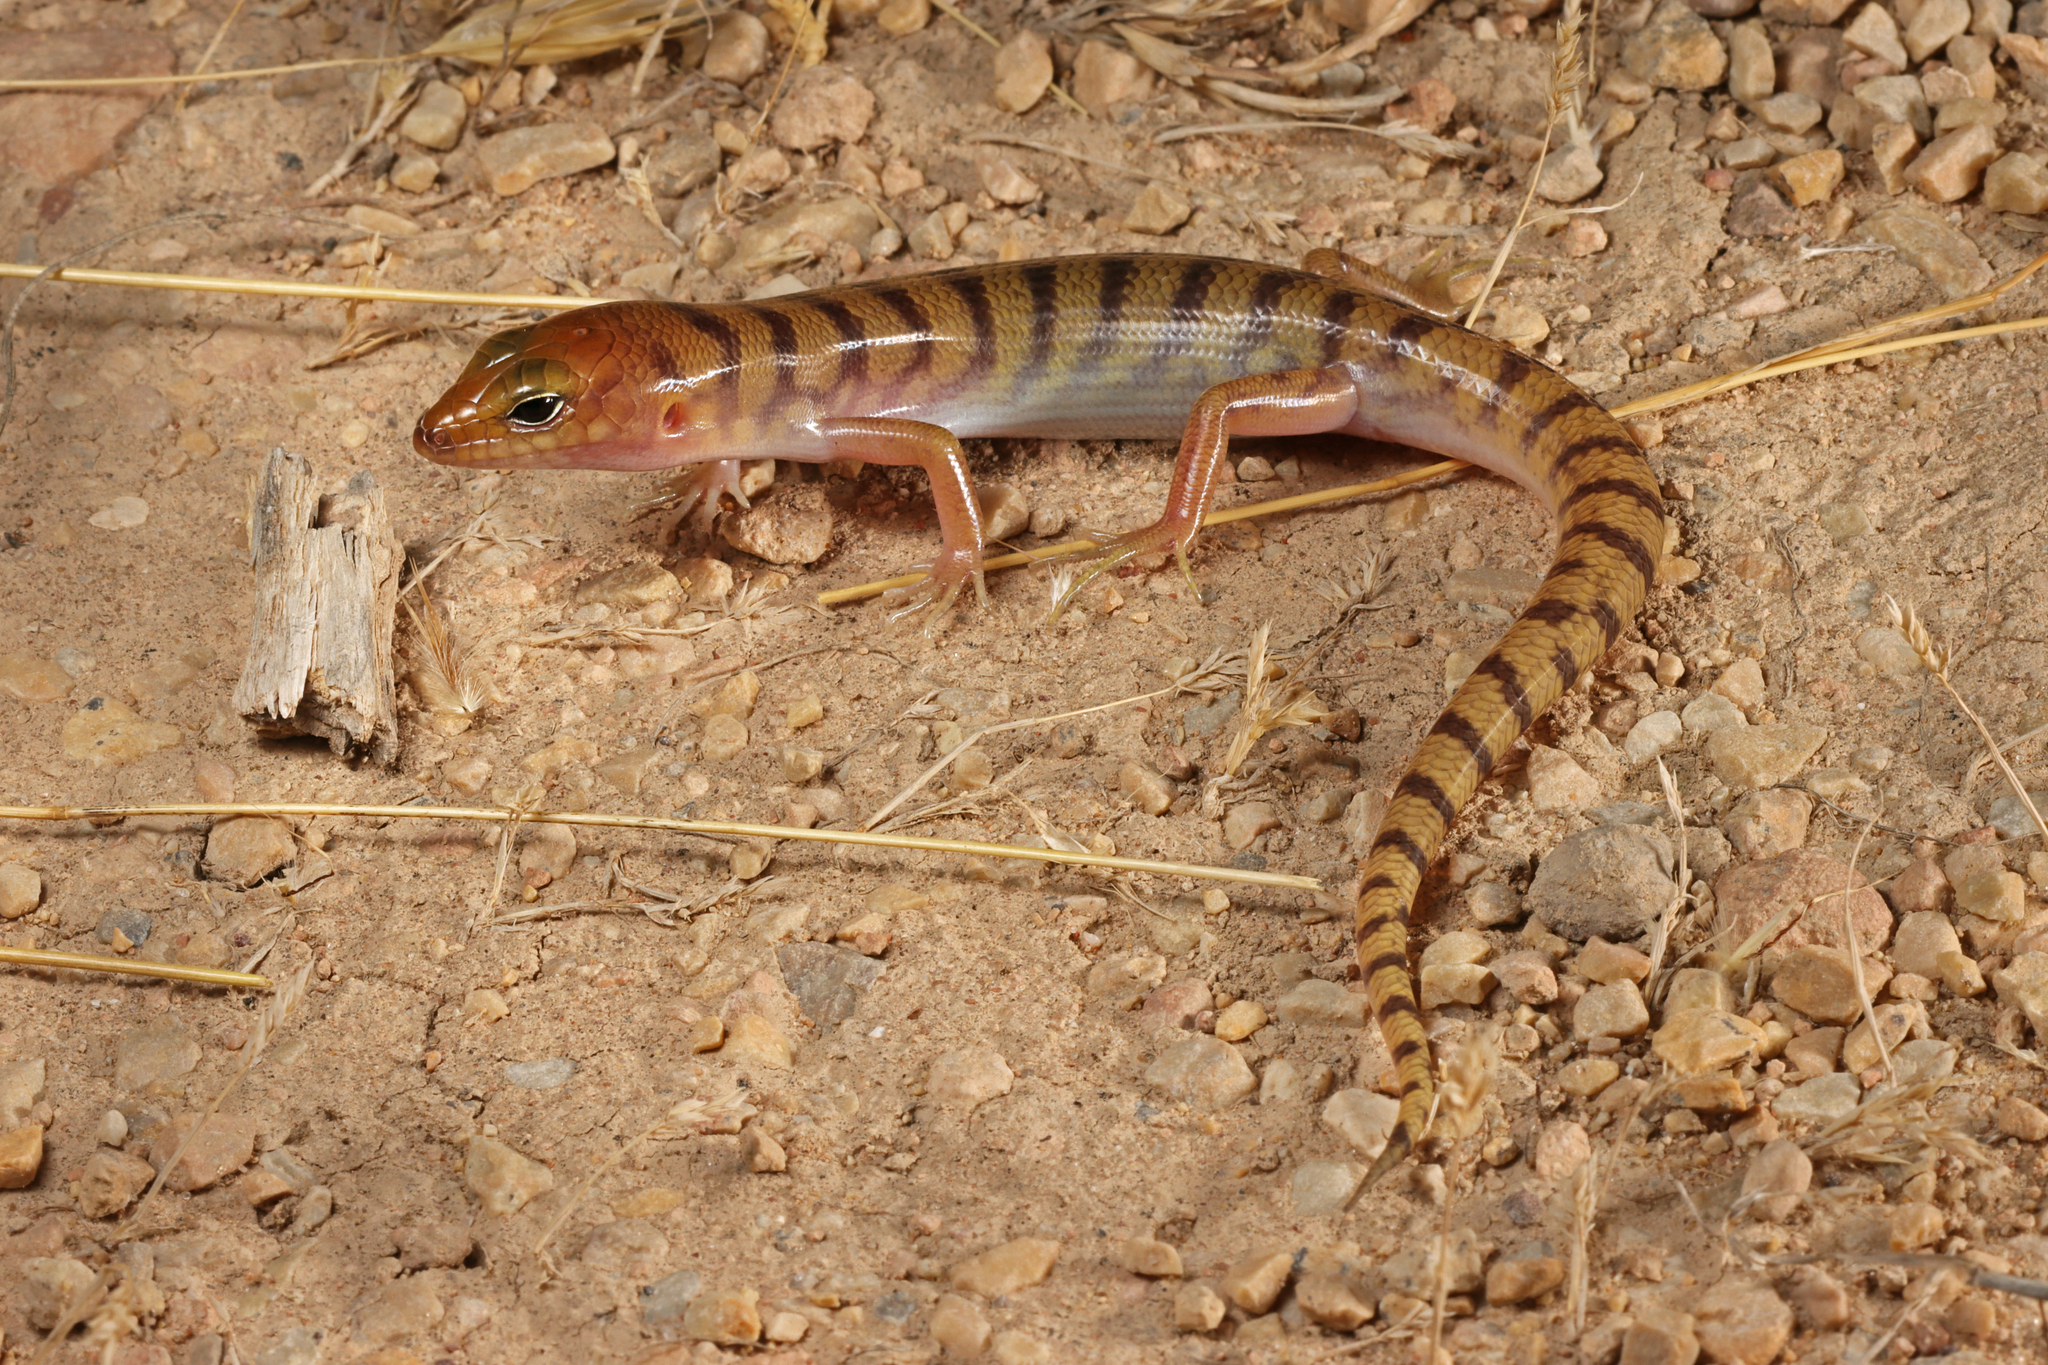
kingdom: Animalia
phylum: Chordata
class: Squamata
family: Scincidae
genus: Eremiascincus
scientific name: Eremiascincus richardsonii
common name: Broad banded sand swimmer
